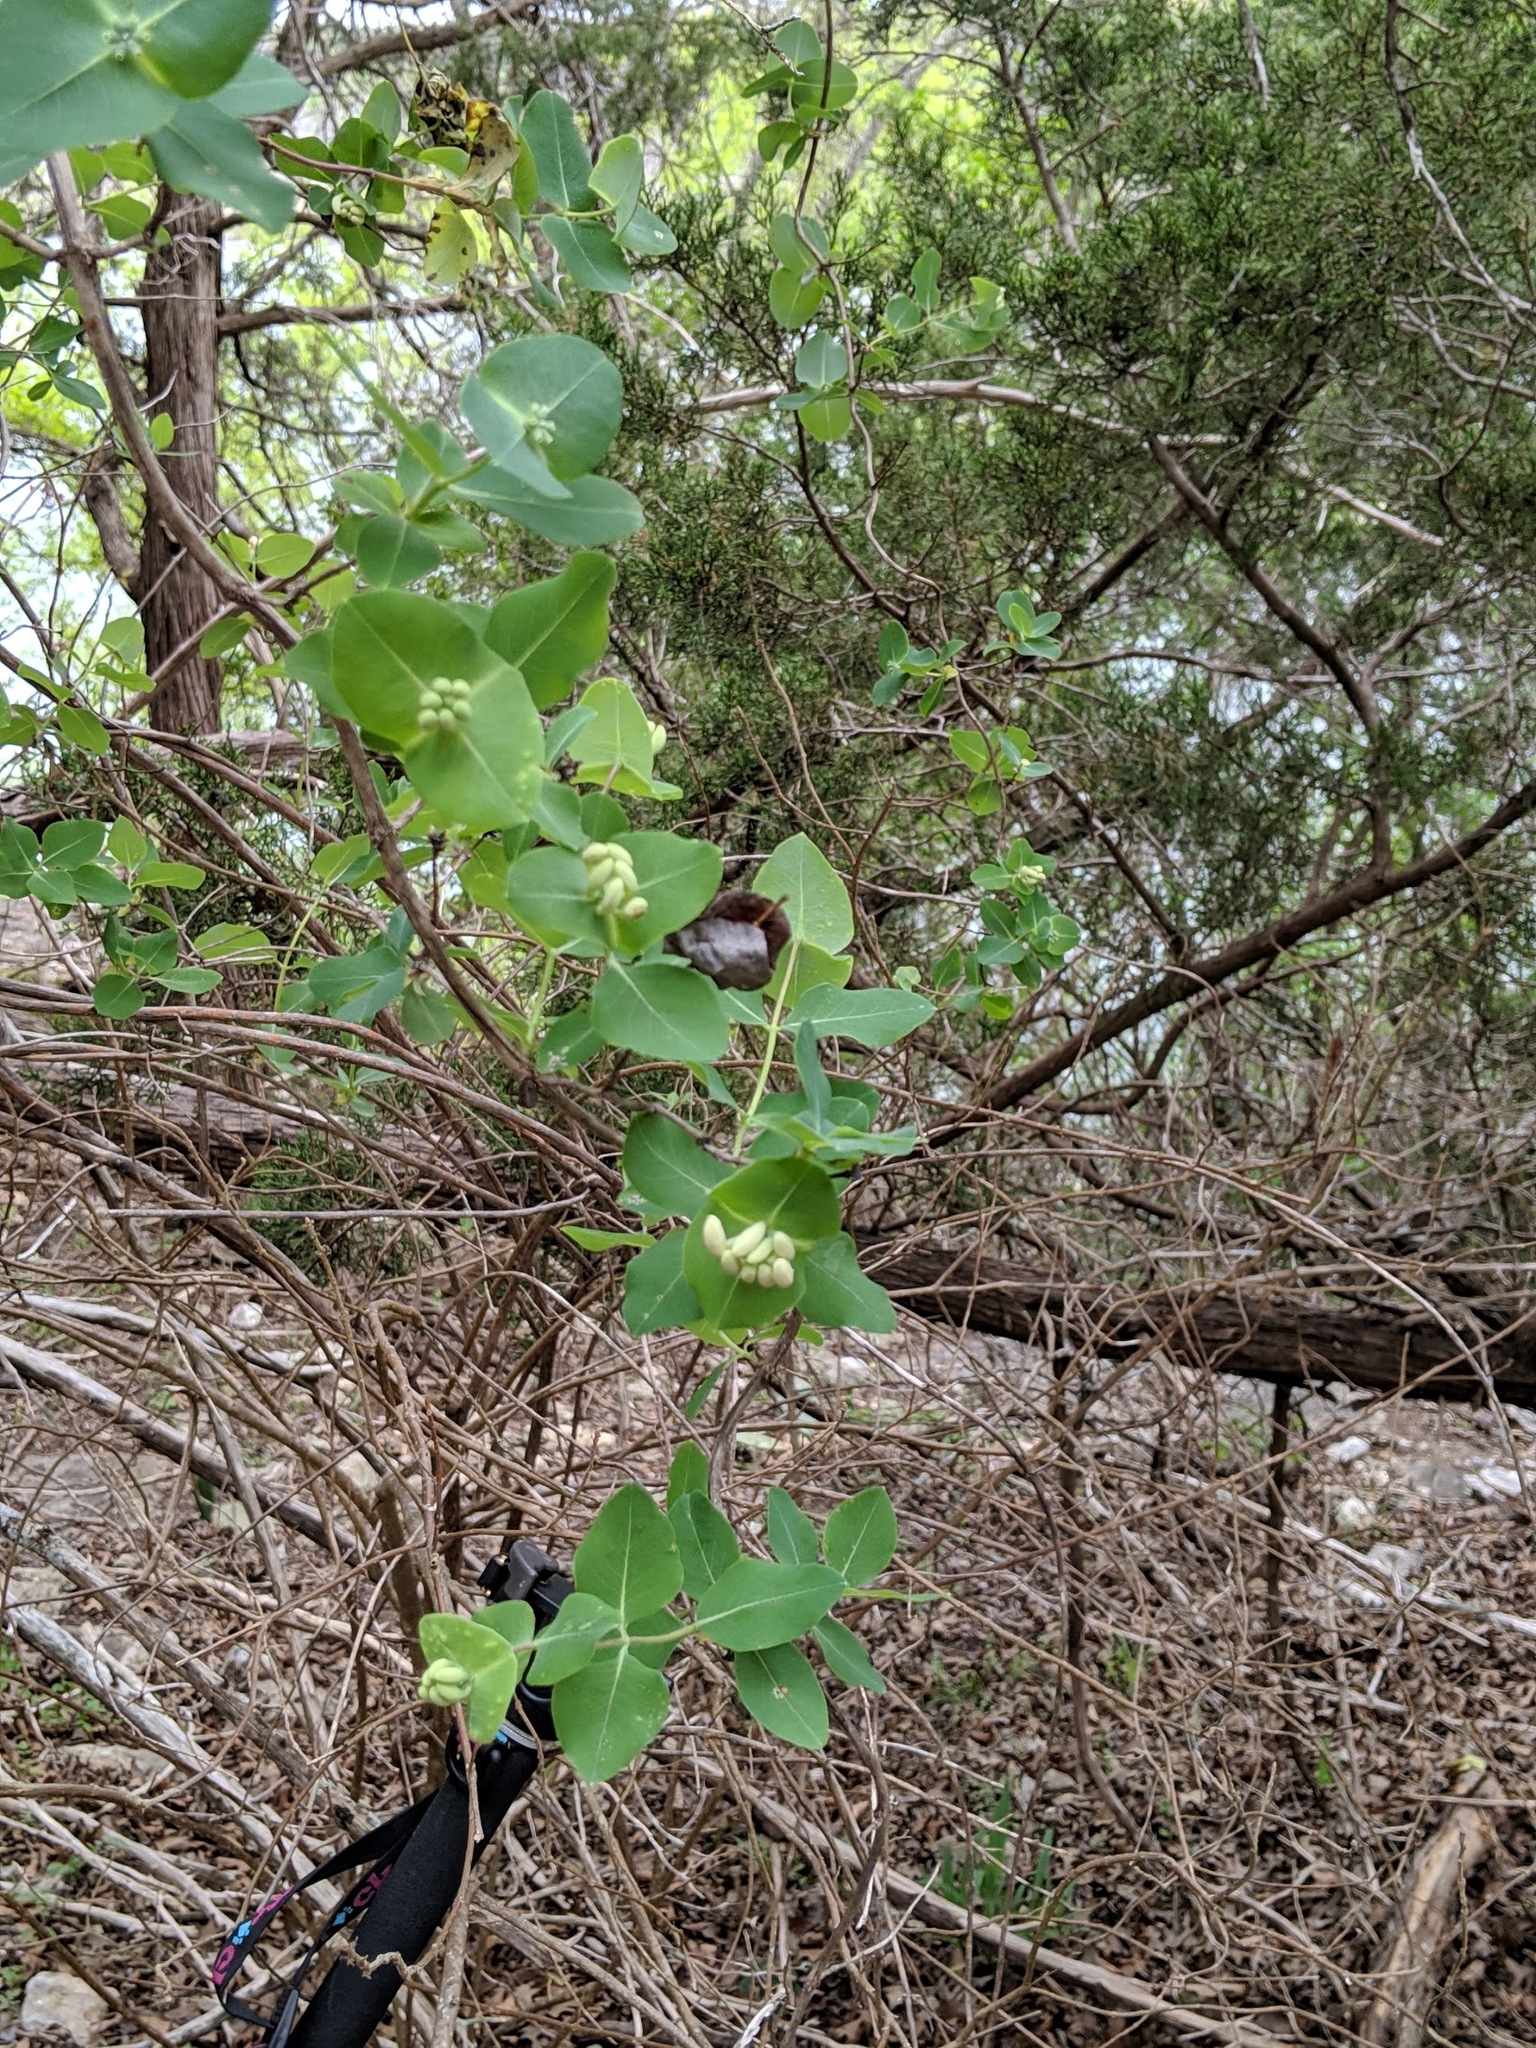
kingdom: Plantae
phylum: Tracheophyta
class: Magnoliopsida
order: Dipsacales
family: Caprifoliaceae
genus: Lonicera
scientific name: Lonicera albiflora
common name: White honeysuckle
